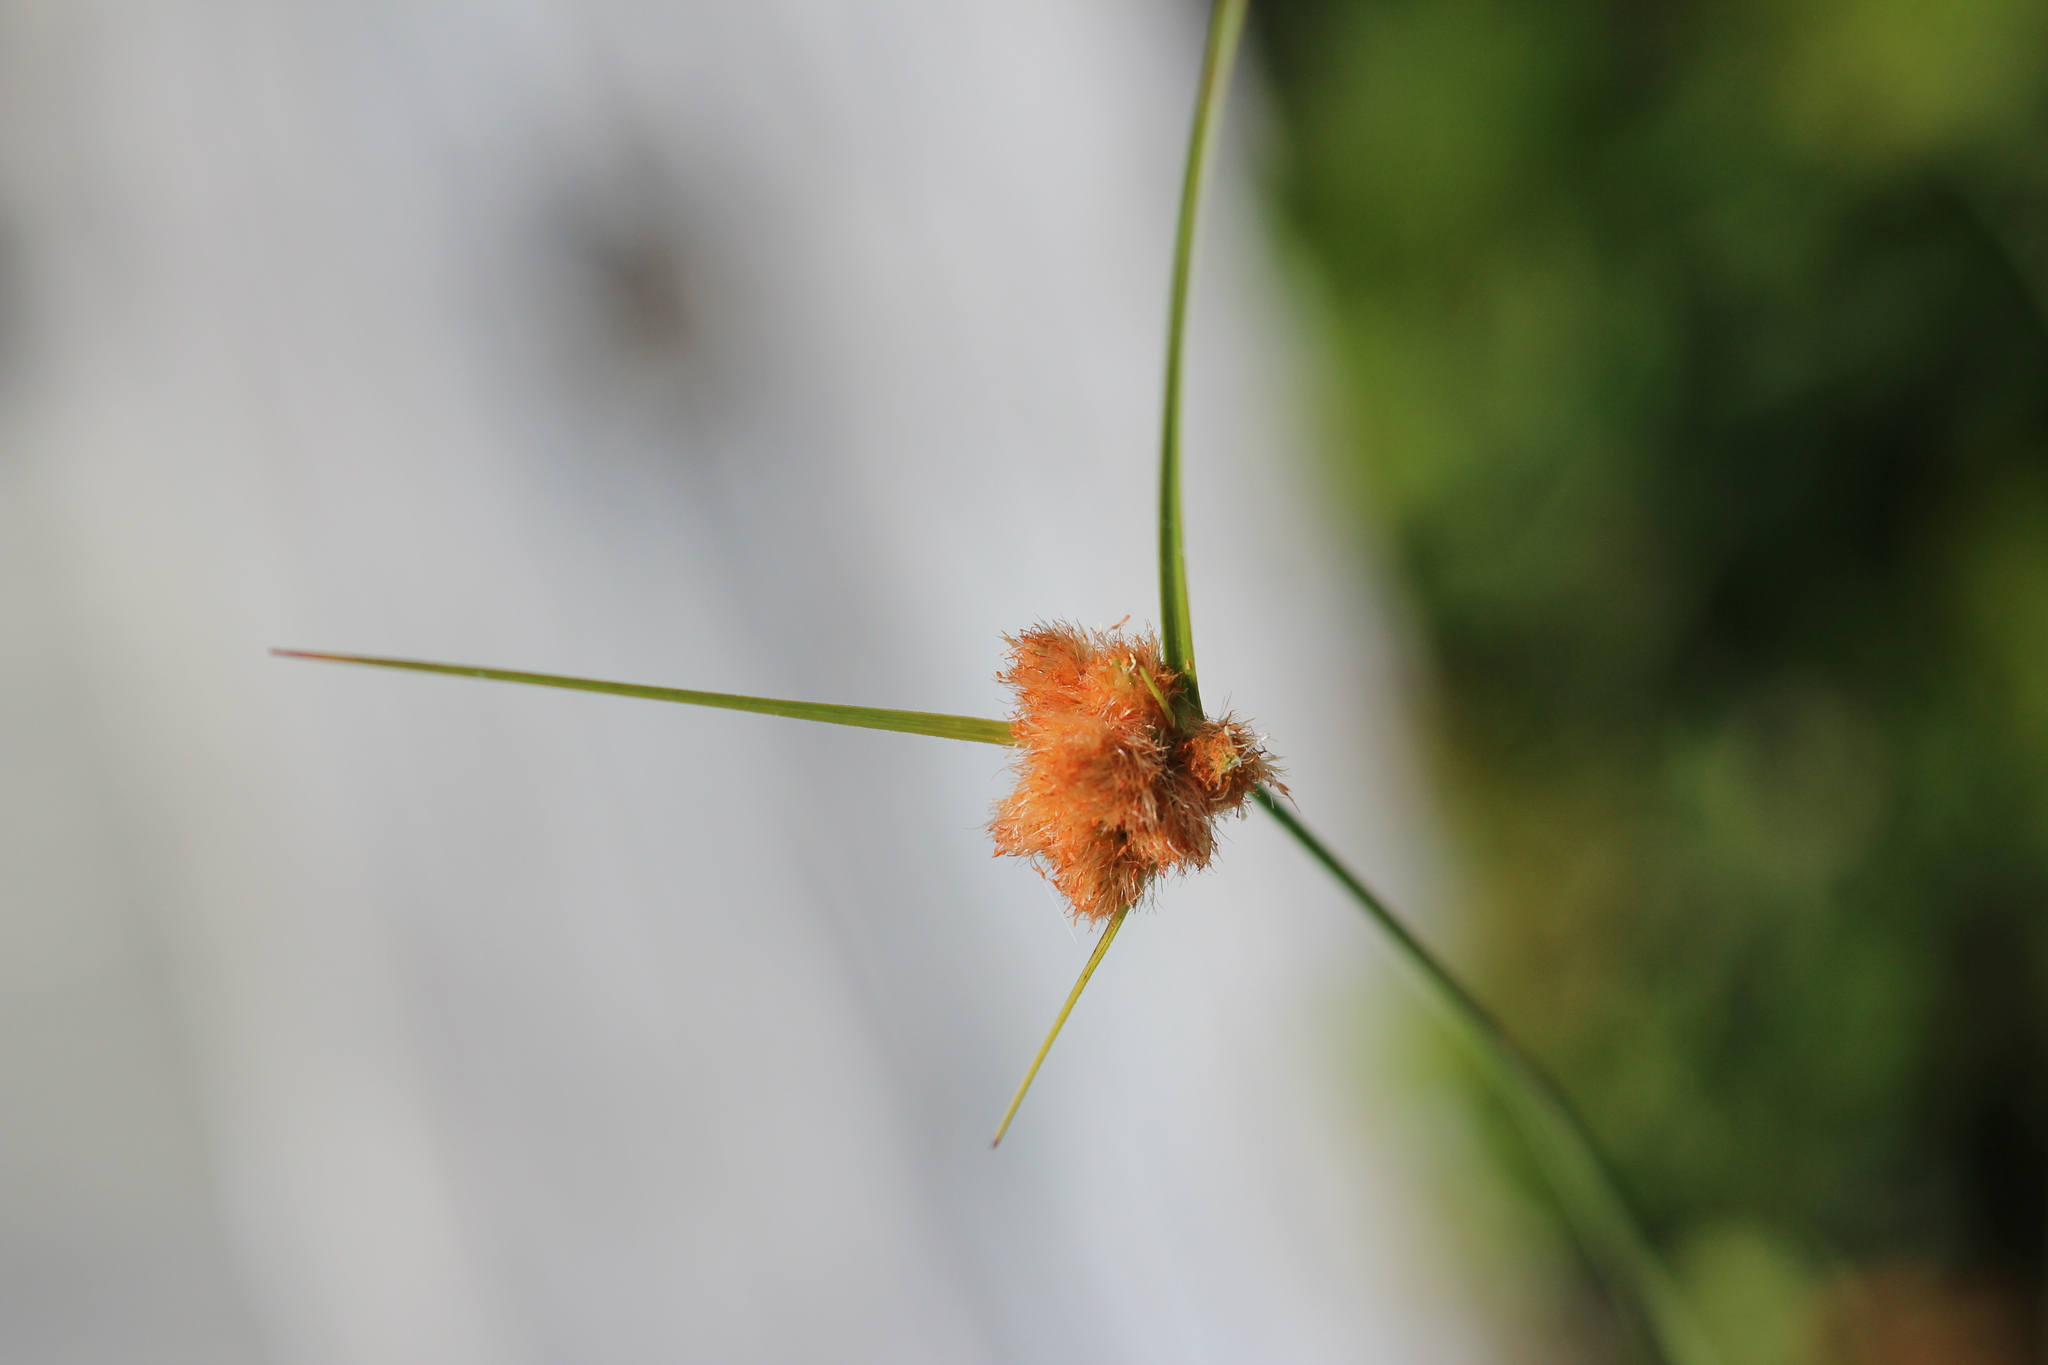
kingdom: Plantae
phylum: Tracheophyta
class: Liliopsida
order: Poales
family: Cyperaceae
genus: Eriophorum
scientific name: Eriophorum virginicum
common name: Tawny cottongrass
